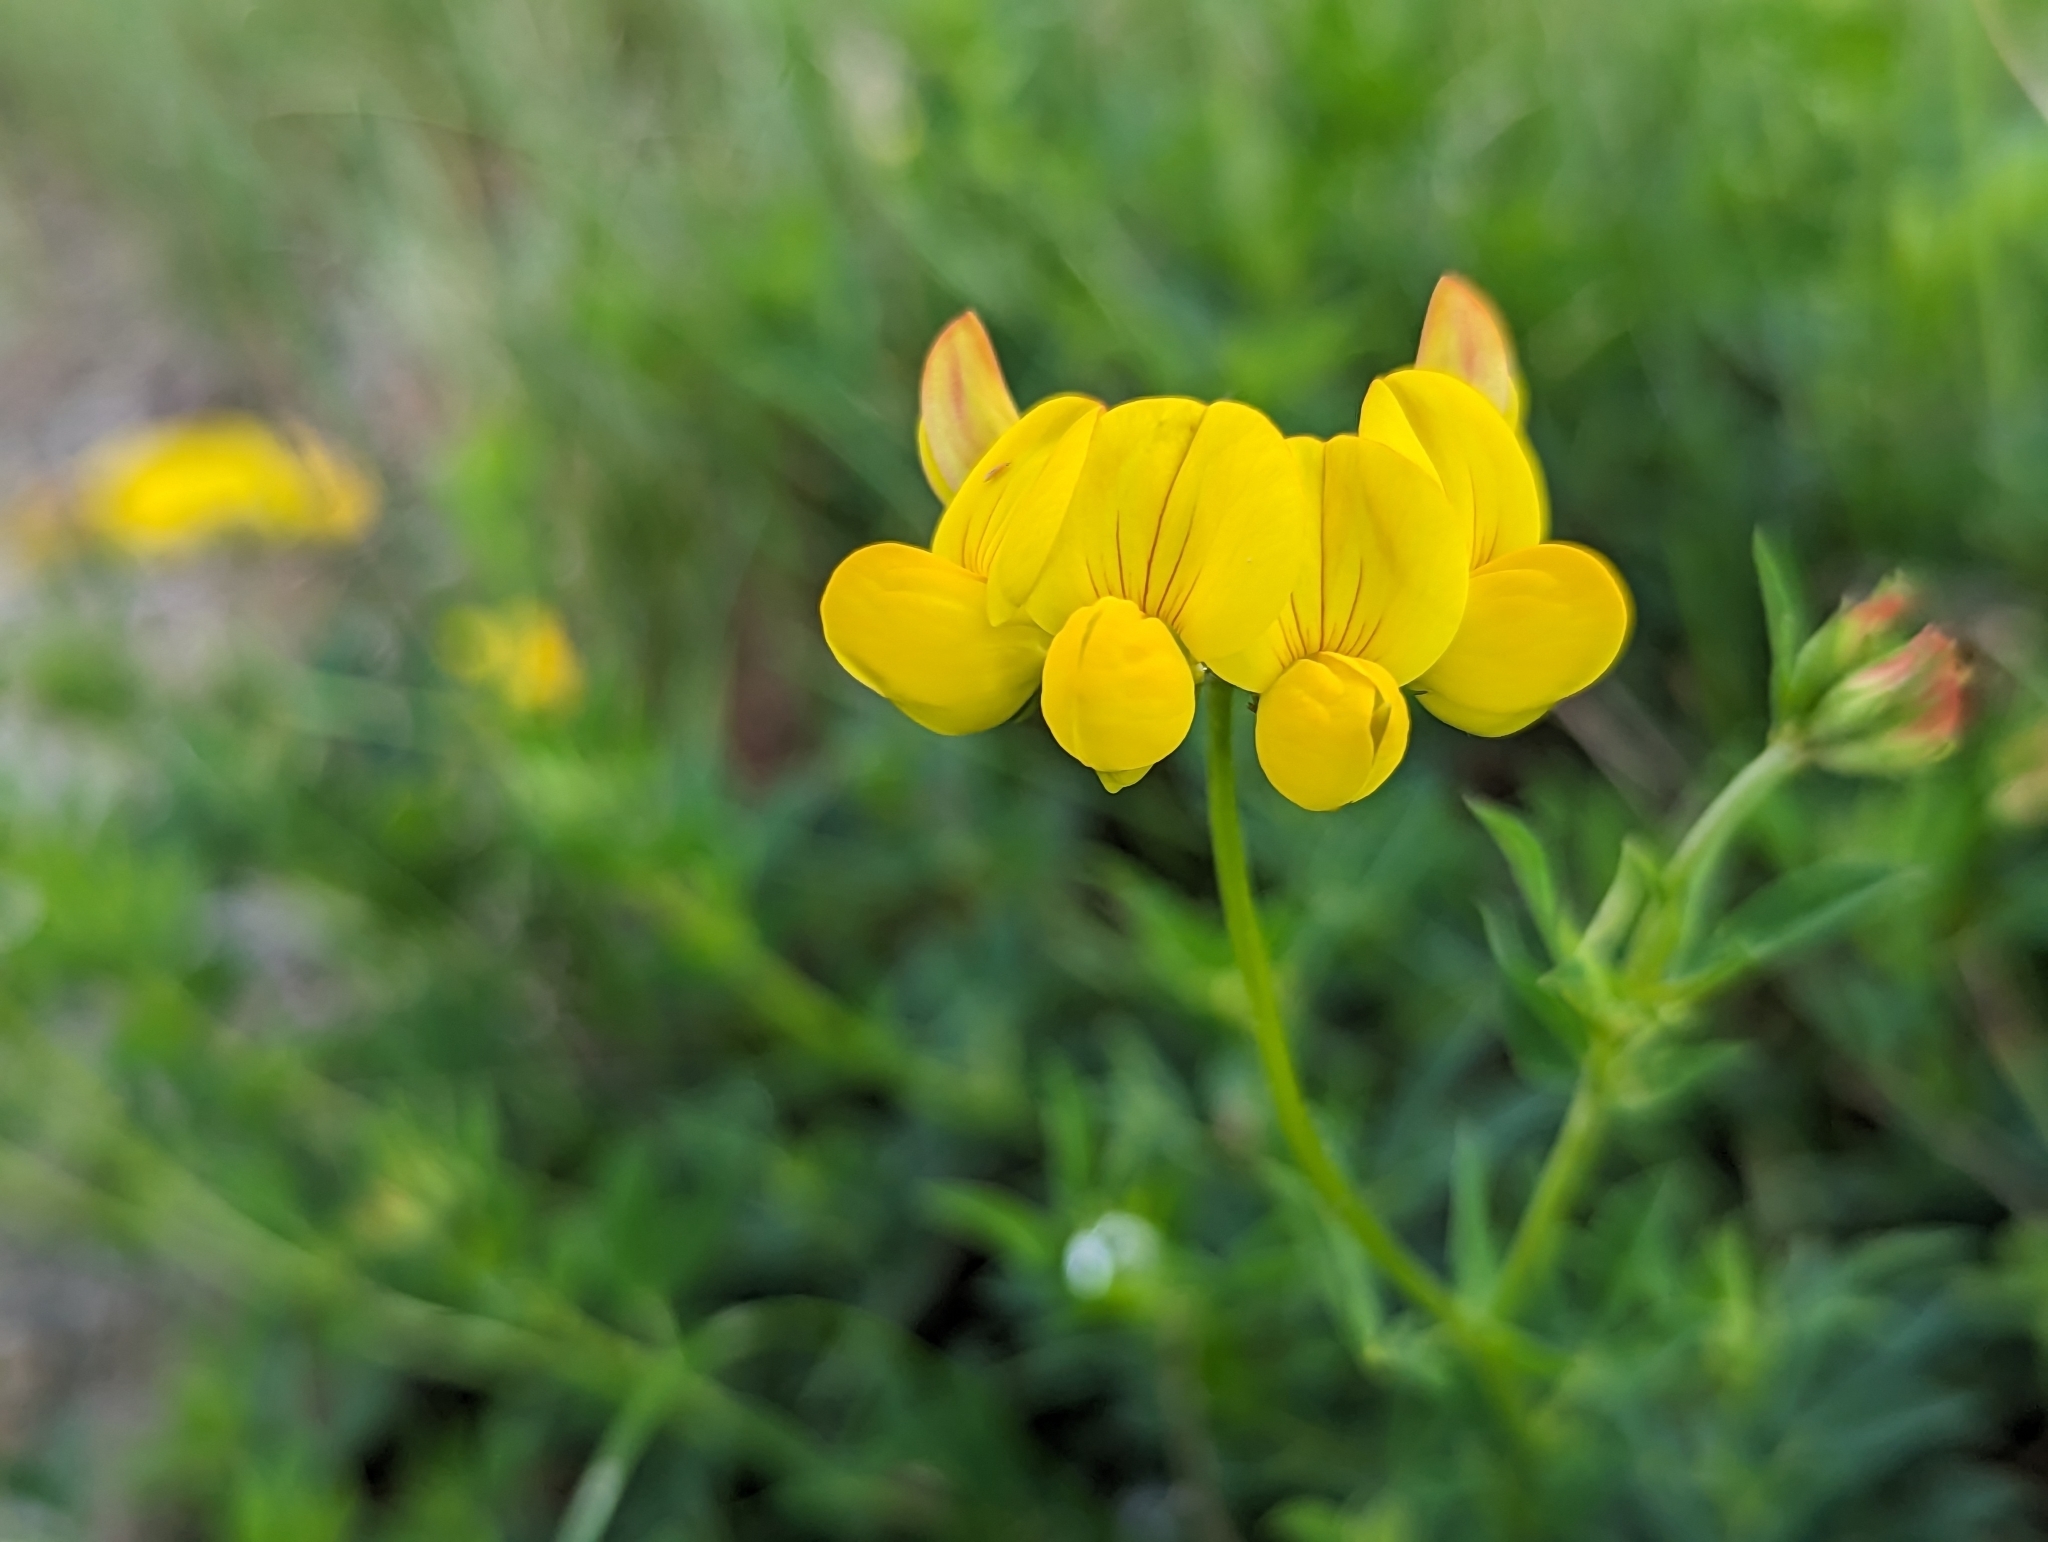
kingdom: Plantae
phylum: Tracheophyta
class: Magnoliopsida
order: Fabales
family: Fabaceae
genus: Lotus
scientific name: Lotus corniculatus
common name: Common bird's-foot-trefoil
